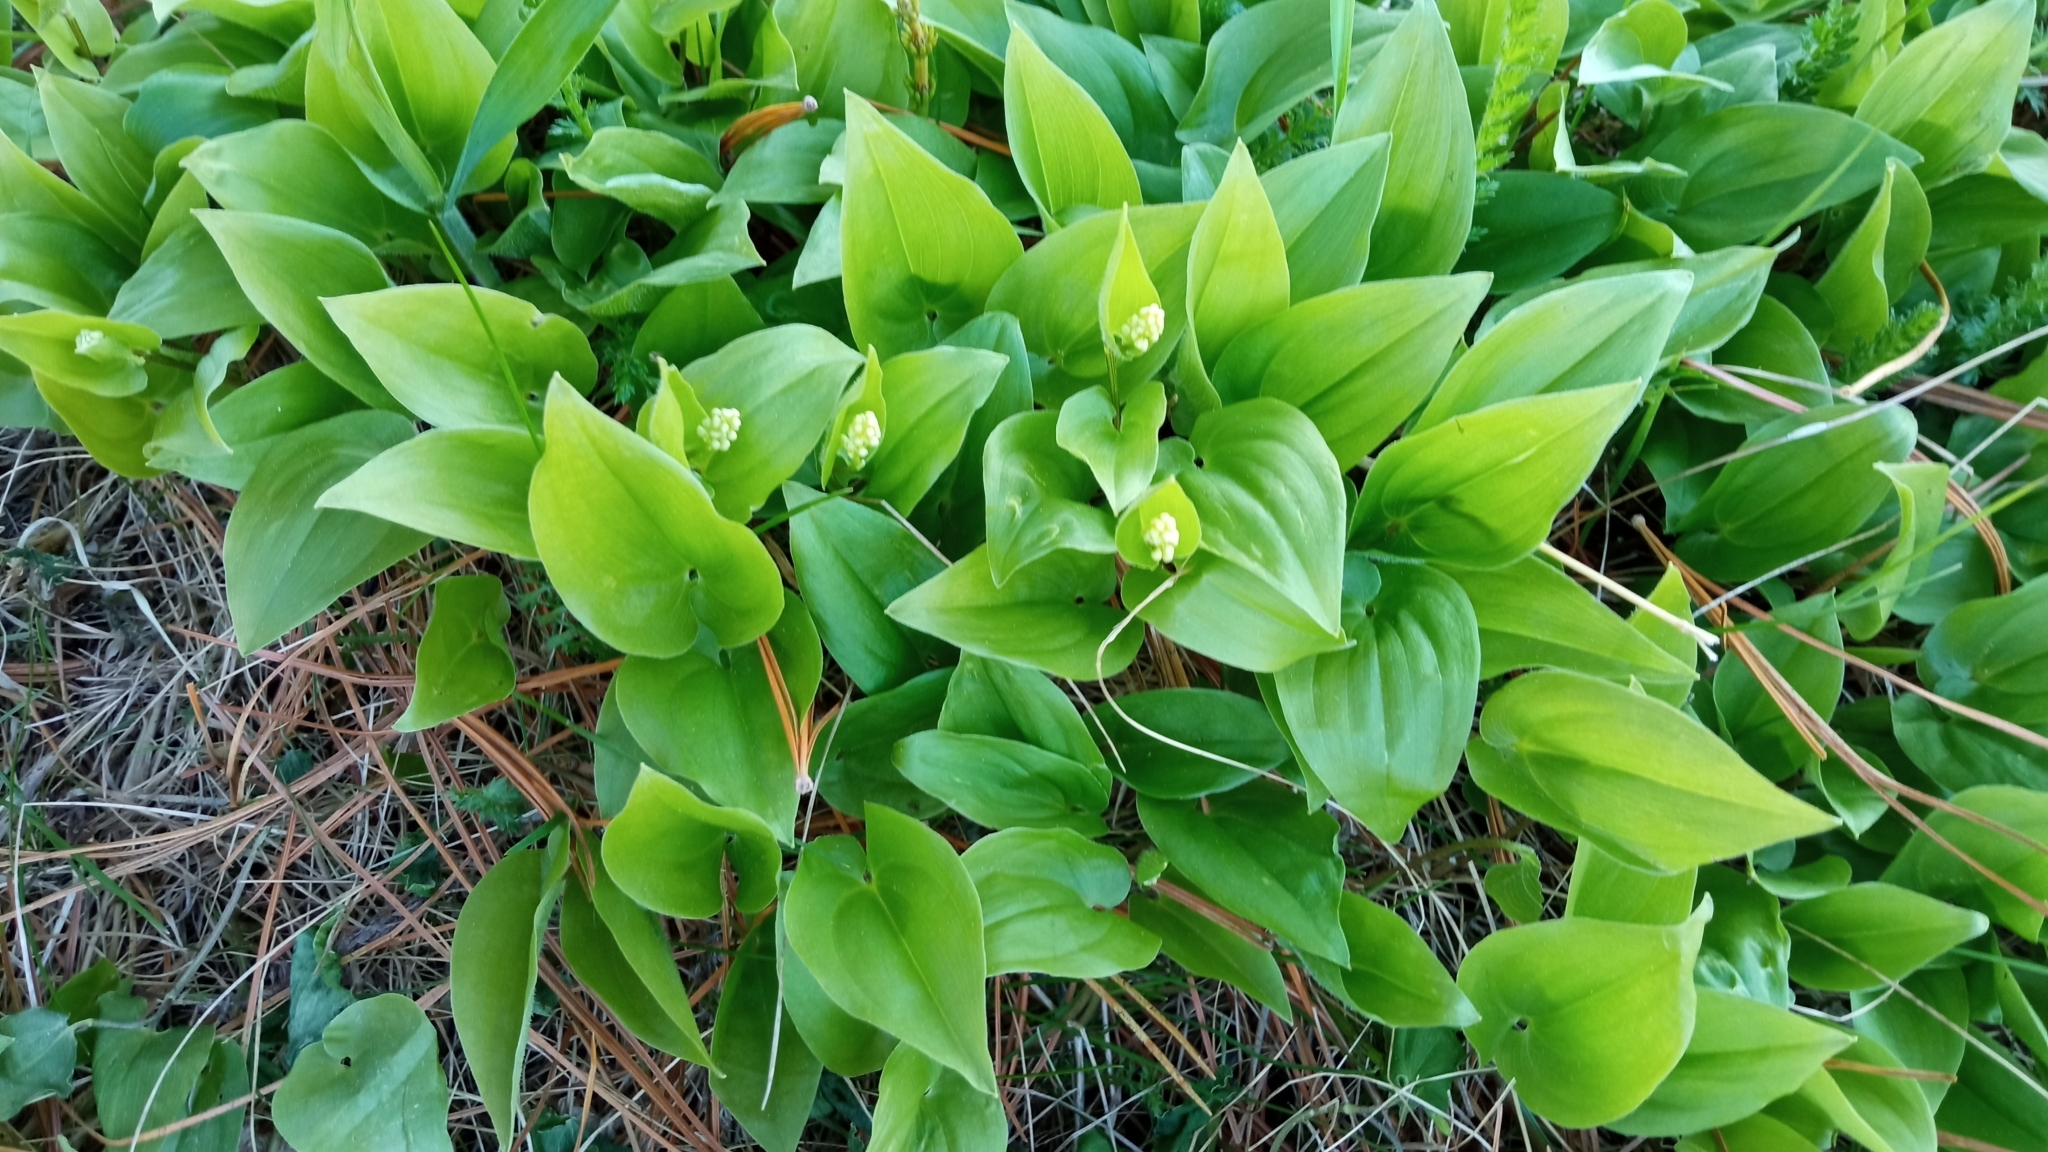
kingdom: Plantae
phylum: Tracheophyta
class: Liliopsida
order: Asparagales
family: Asparagaceae
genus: Maianthemum
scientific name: Maianthemum bifolium
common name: May lily
